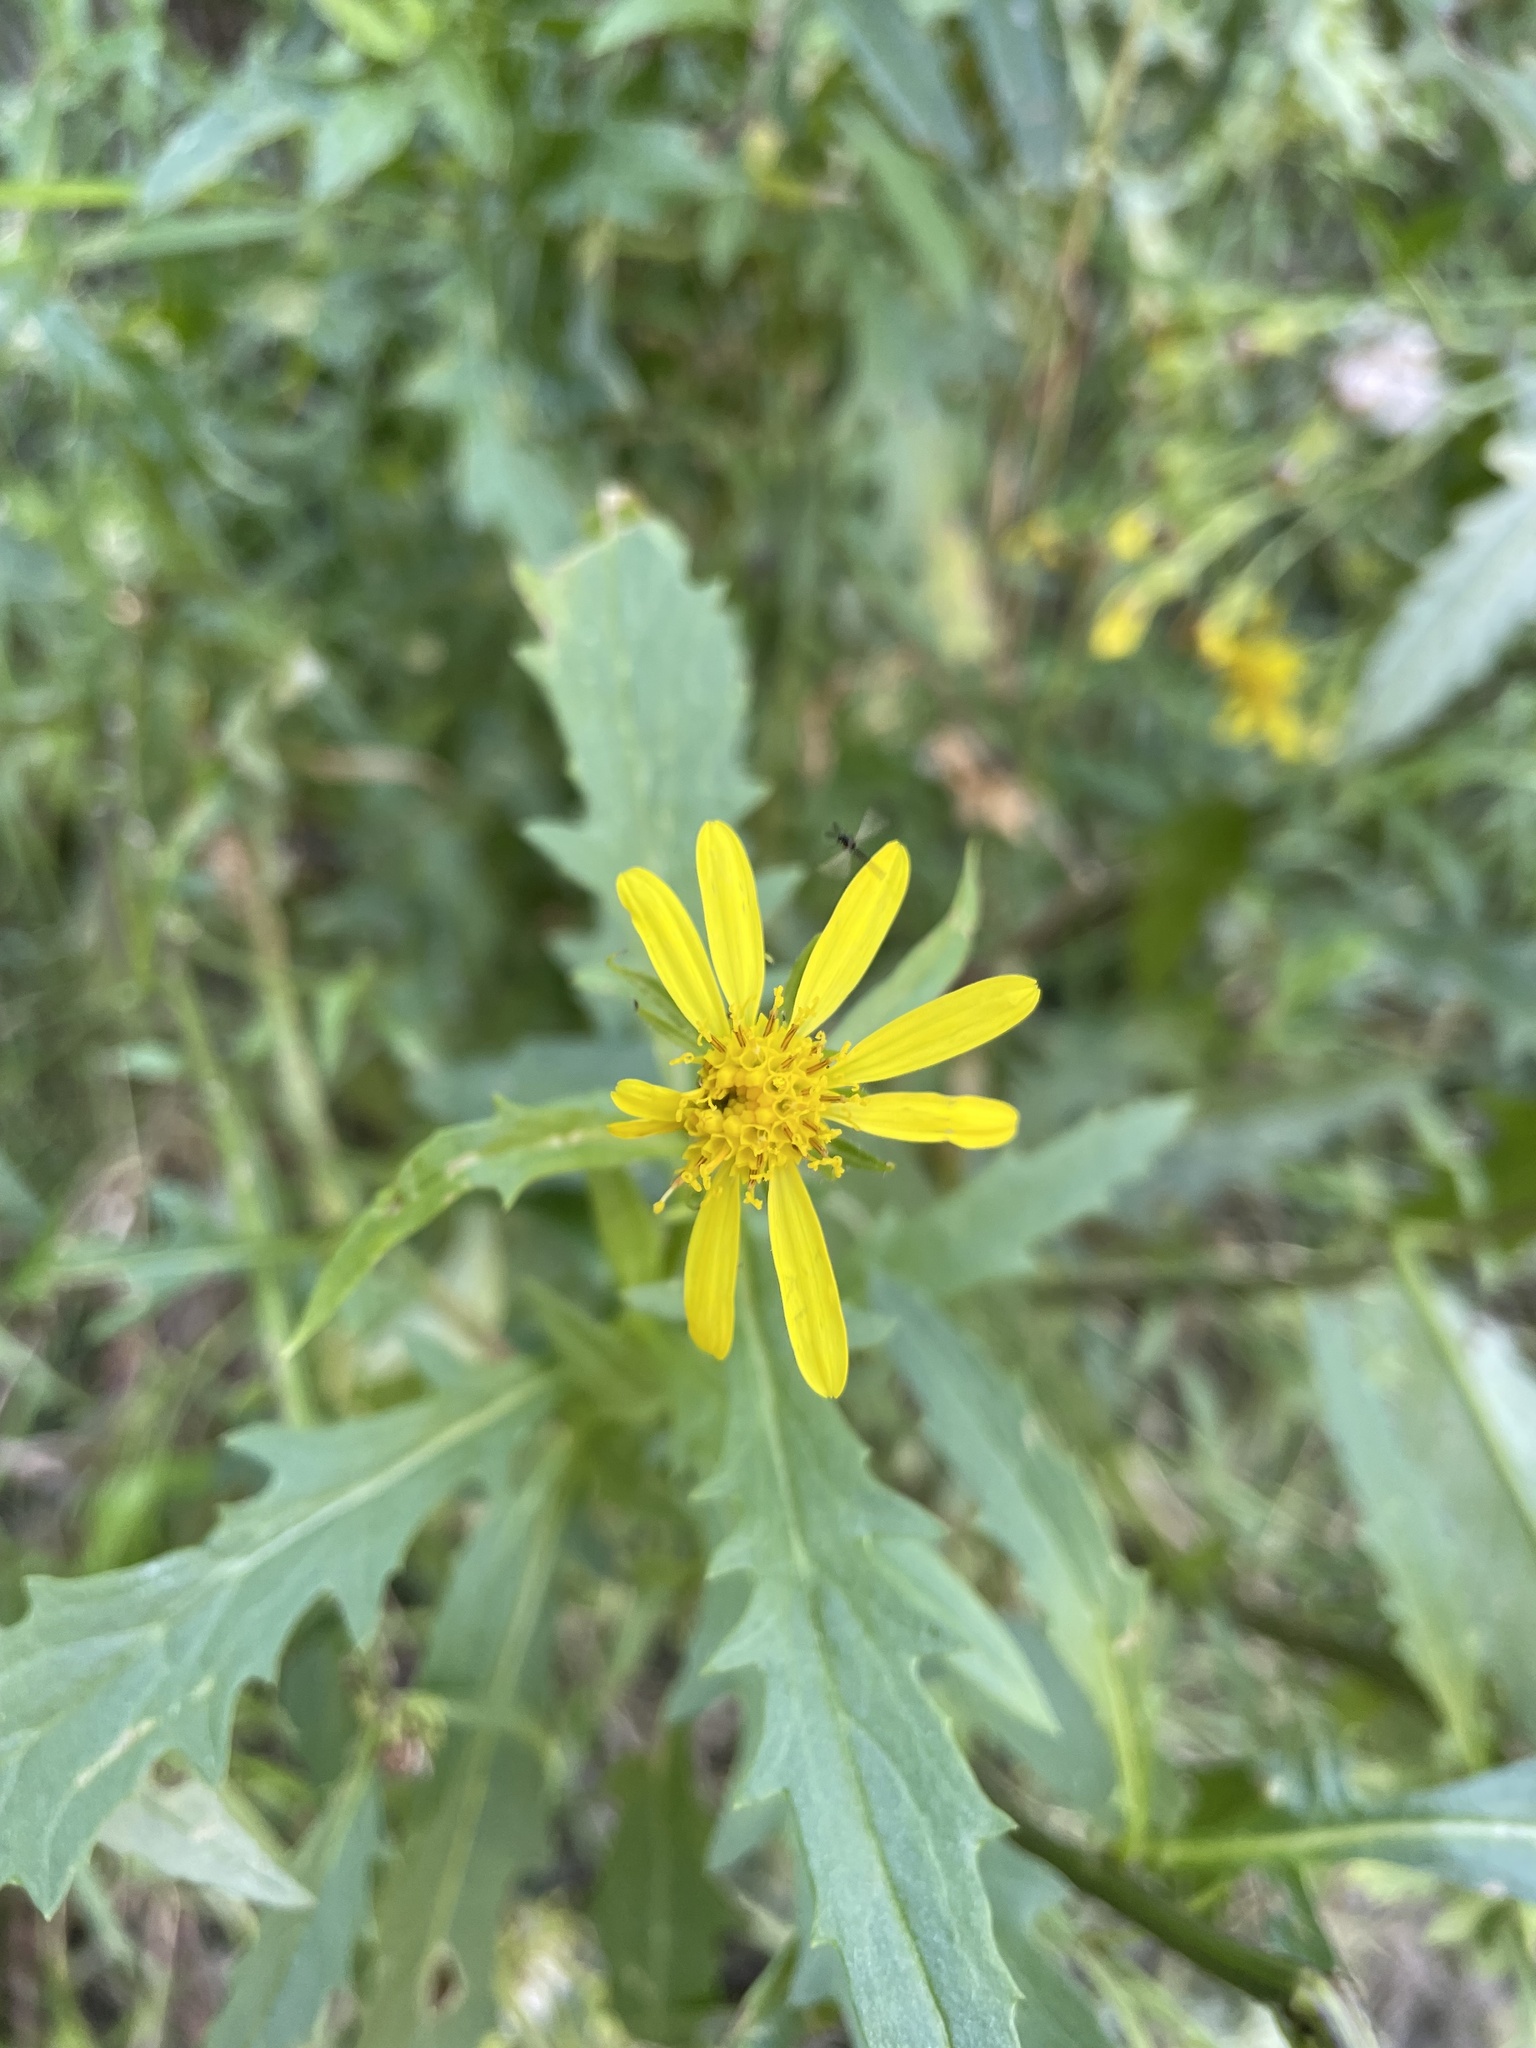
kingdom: Plantae
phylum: Tracheophyta
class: Magnoliopsida
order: Asterales
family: Asteraceae
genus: Senecio
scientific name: Senecio eremophilus
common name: Desert ragwort
